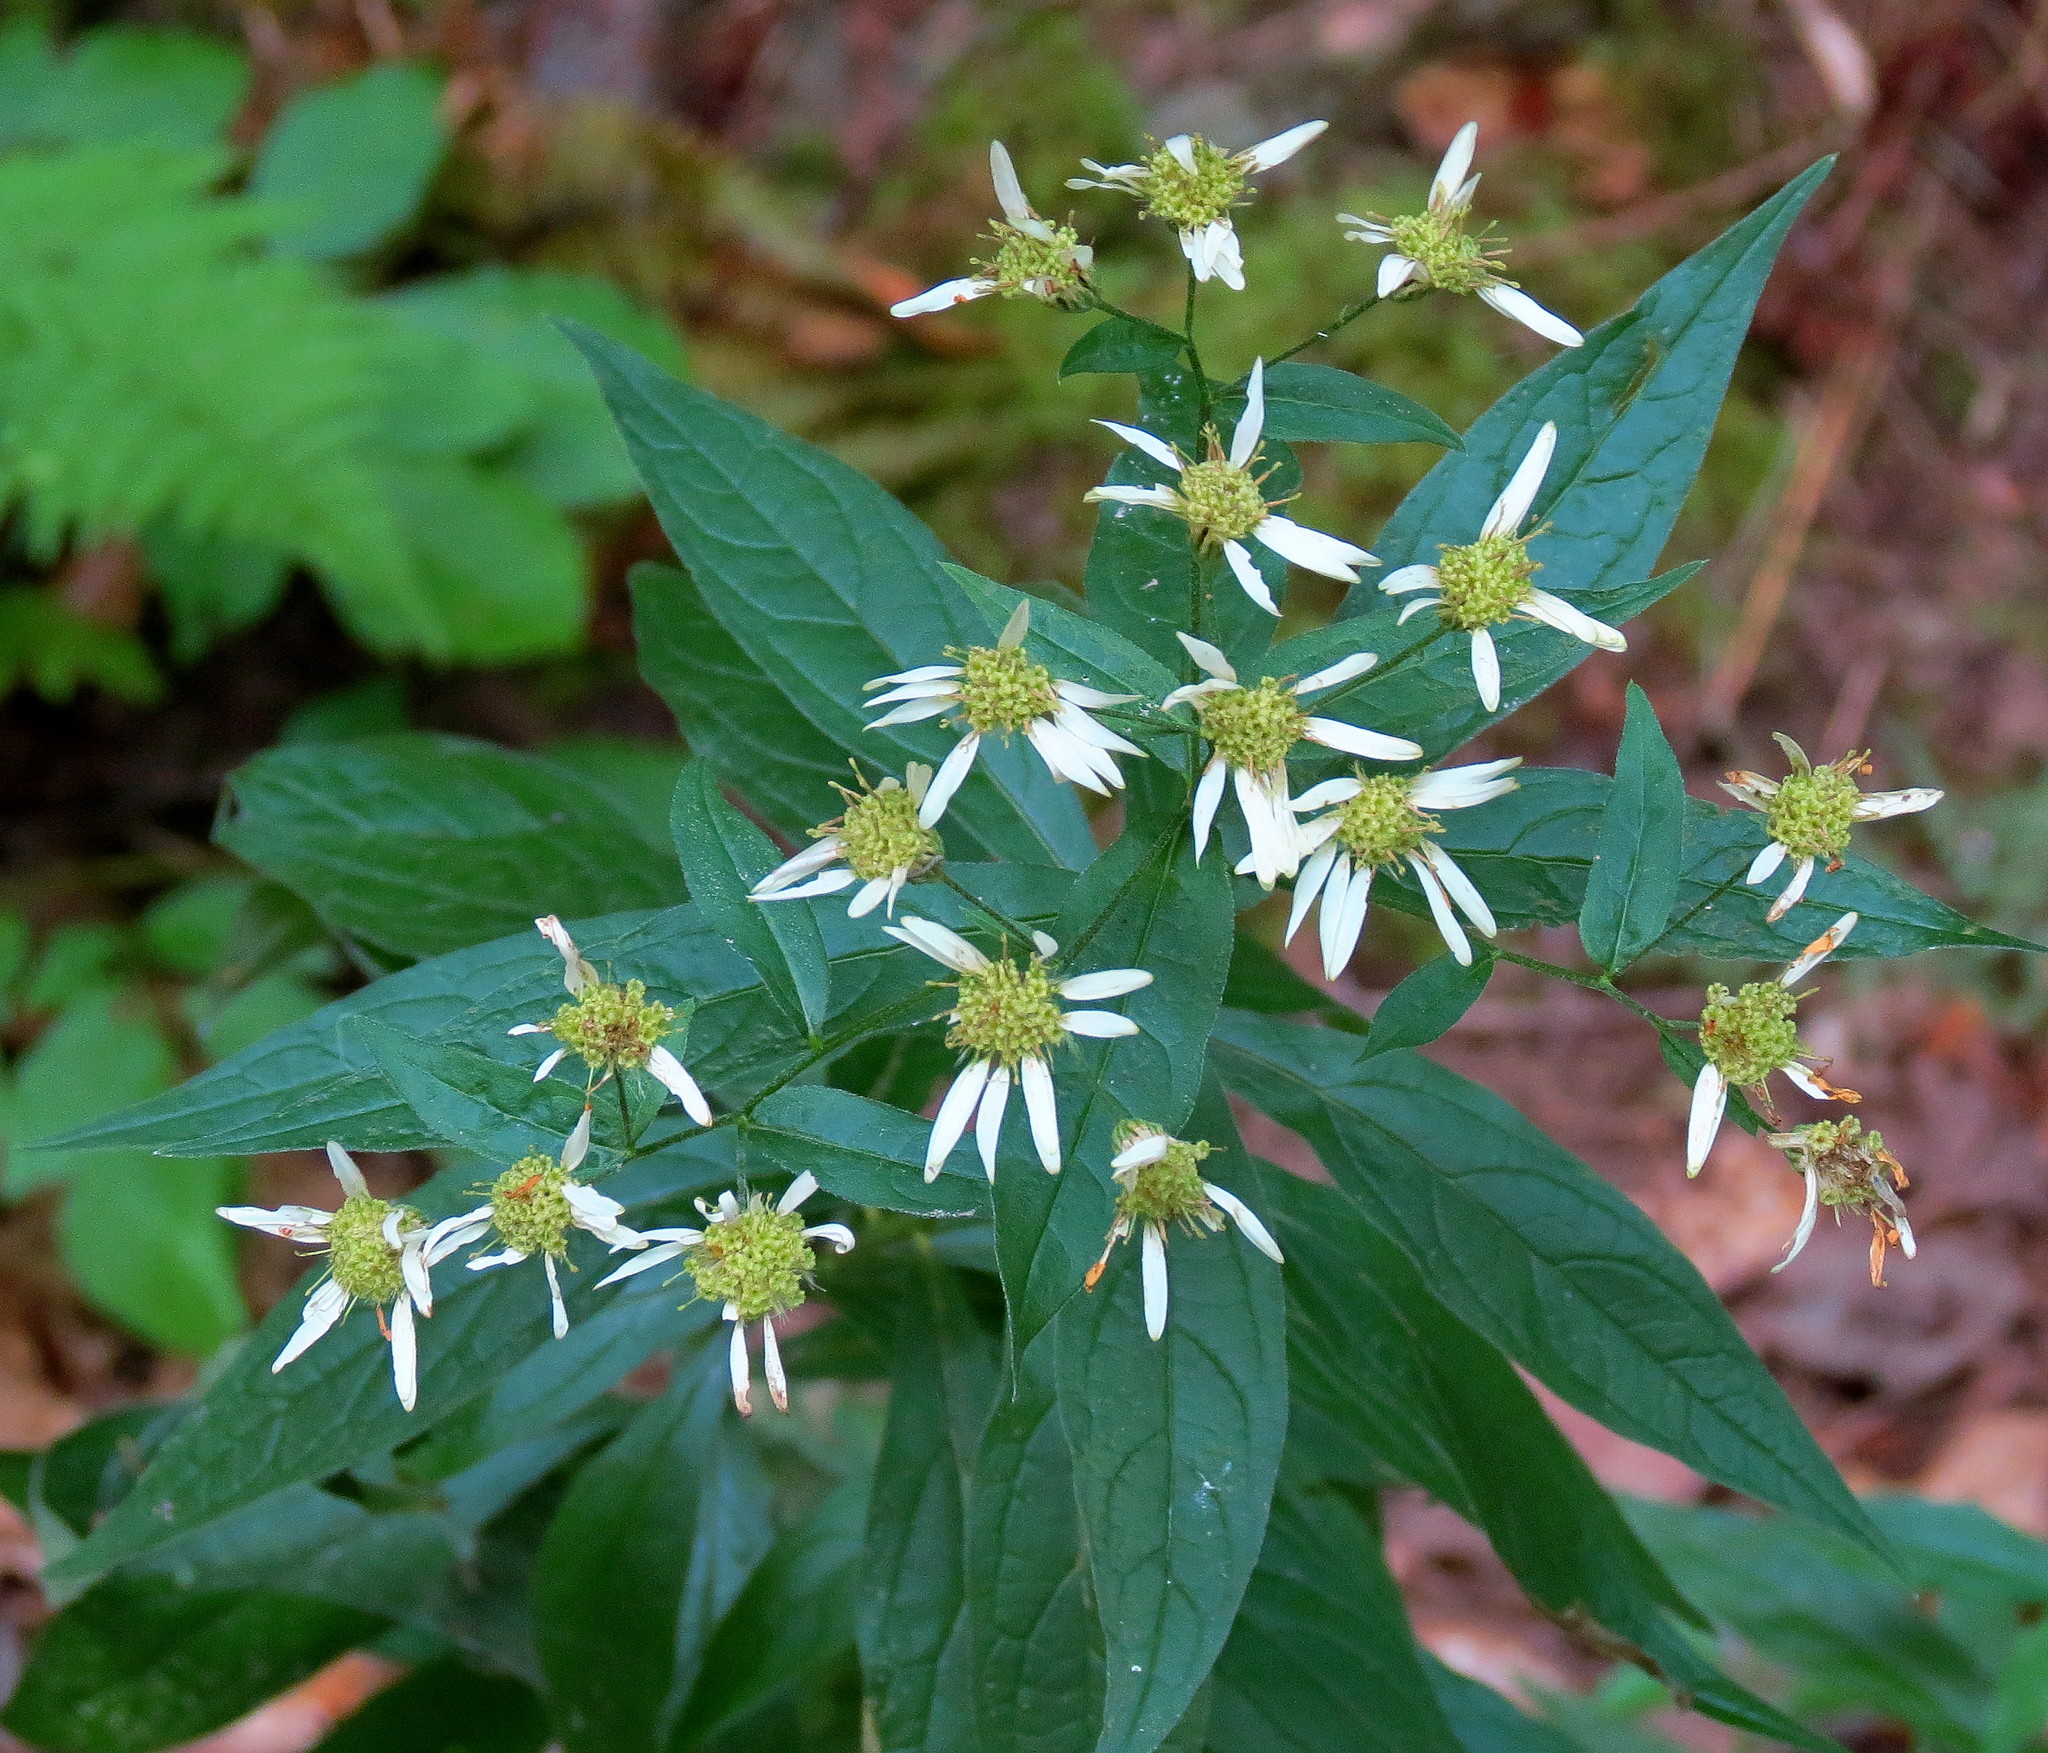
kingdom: Plantae
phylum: Tracheophyta
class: Magnoliopsida
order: Asterales
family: Asteraceae
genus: Doellingeria
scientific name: Doellingeria umbellata
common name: Flat-top white aster
